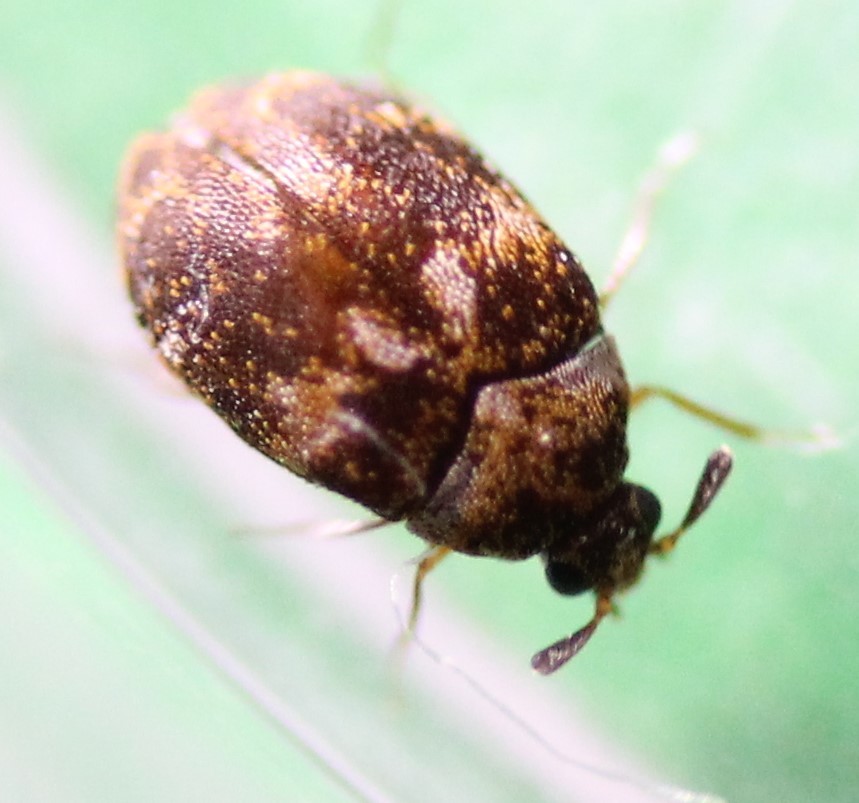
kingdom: Animalia
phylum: Arthropoda
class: Insecta
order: Coleoptera
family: Dermestidae
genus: Anthrenus
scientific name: Anthrenus fuscus
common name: Mill carpet beetle
